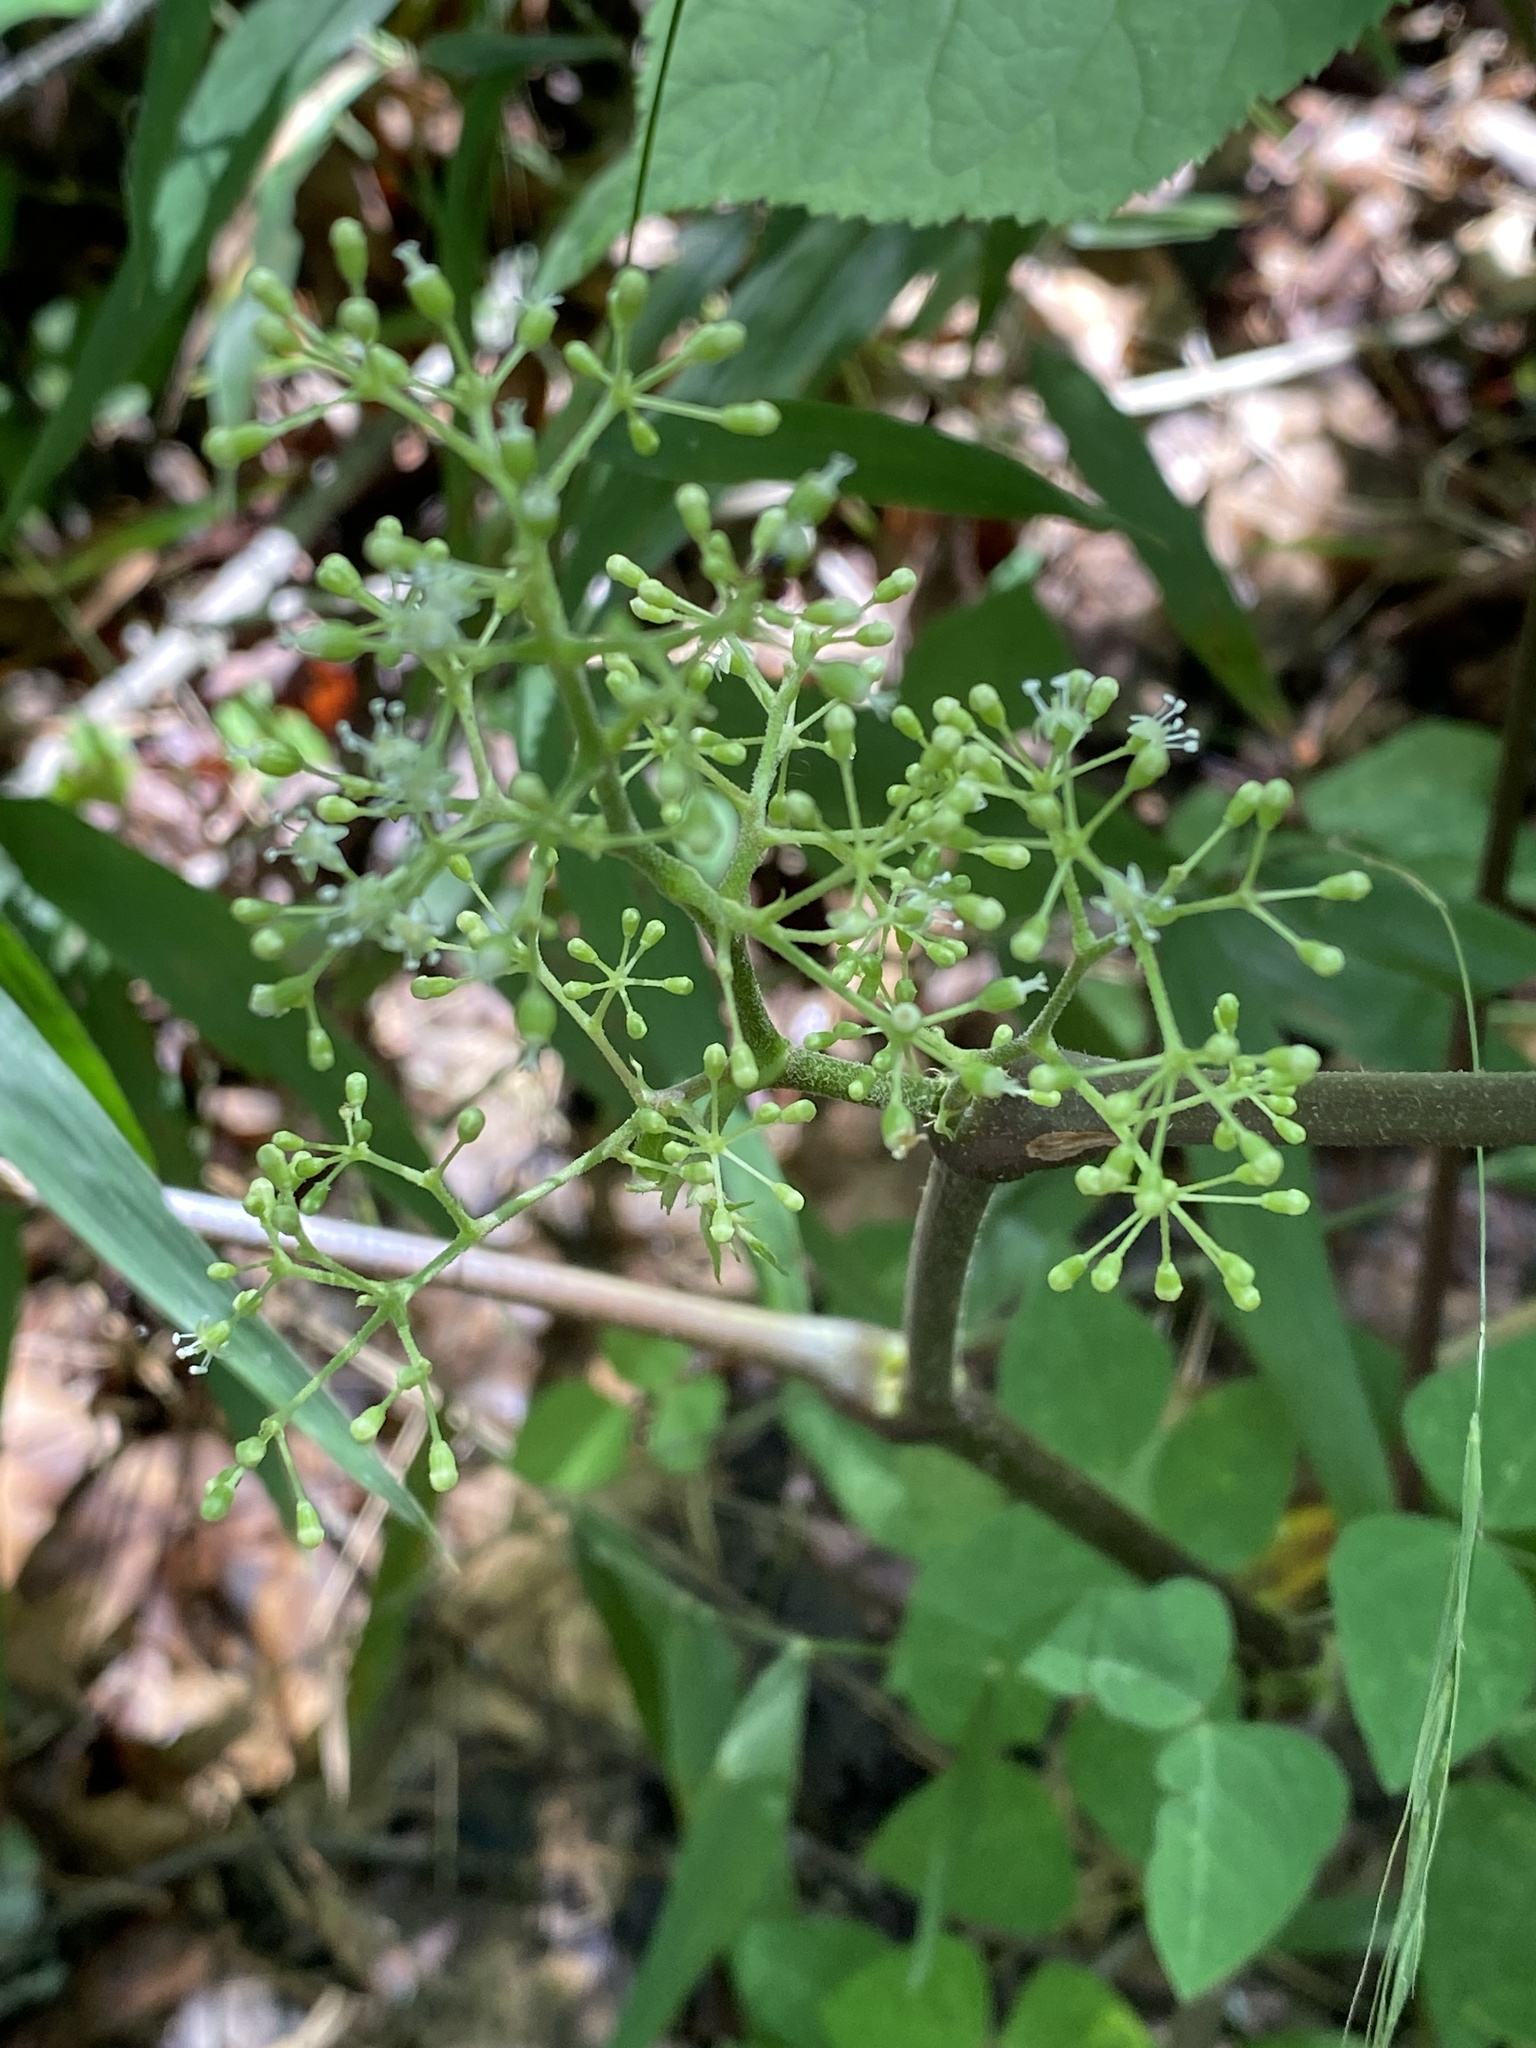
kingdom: Plantae
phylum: Tracheophyta
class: Magnoliopsida
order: Apiales
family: Araliaceae
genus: Aralia
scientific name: Aralia racemosa
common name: American-spikenard
